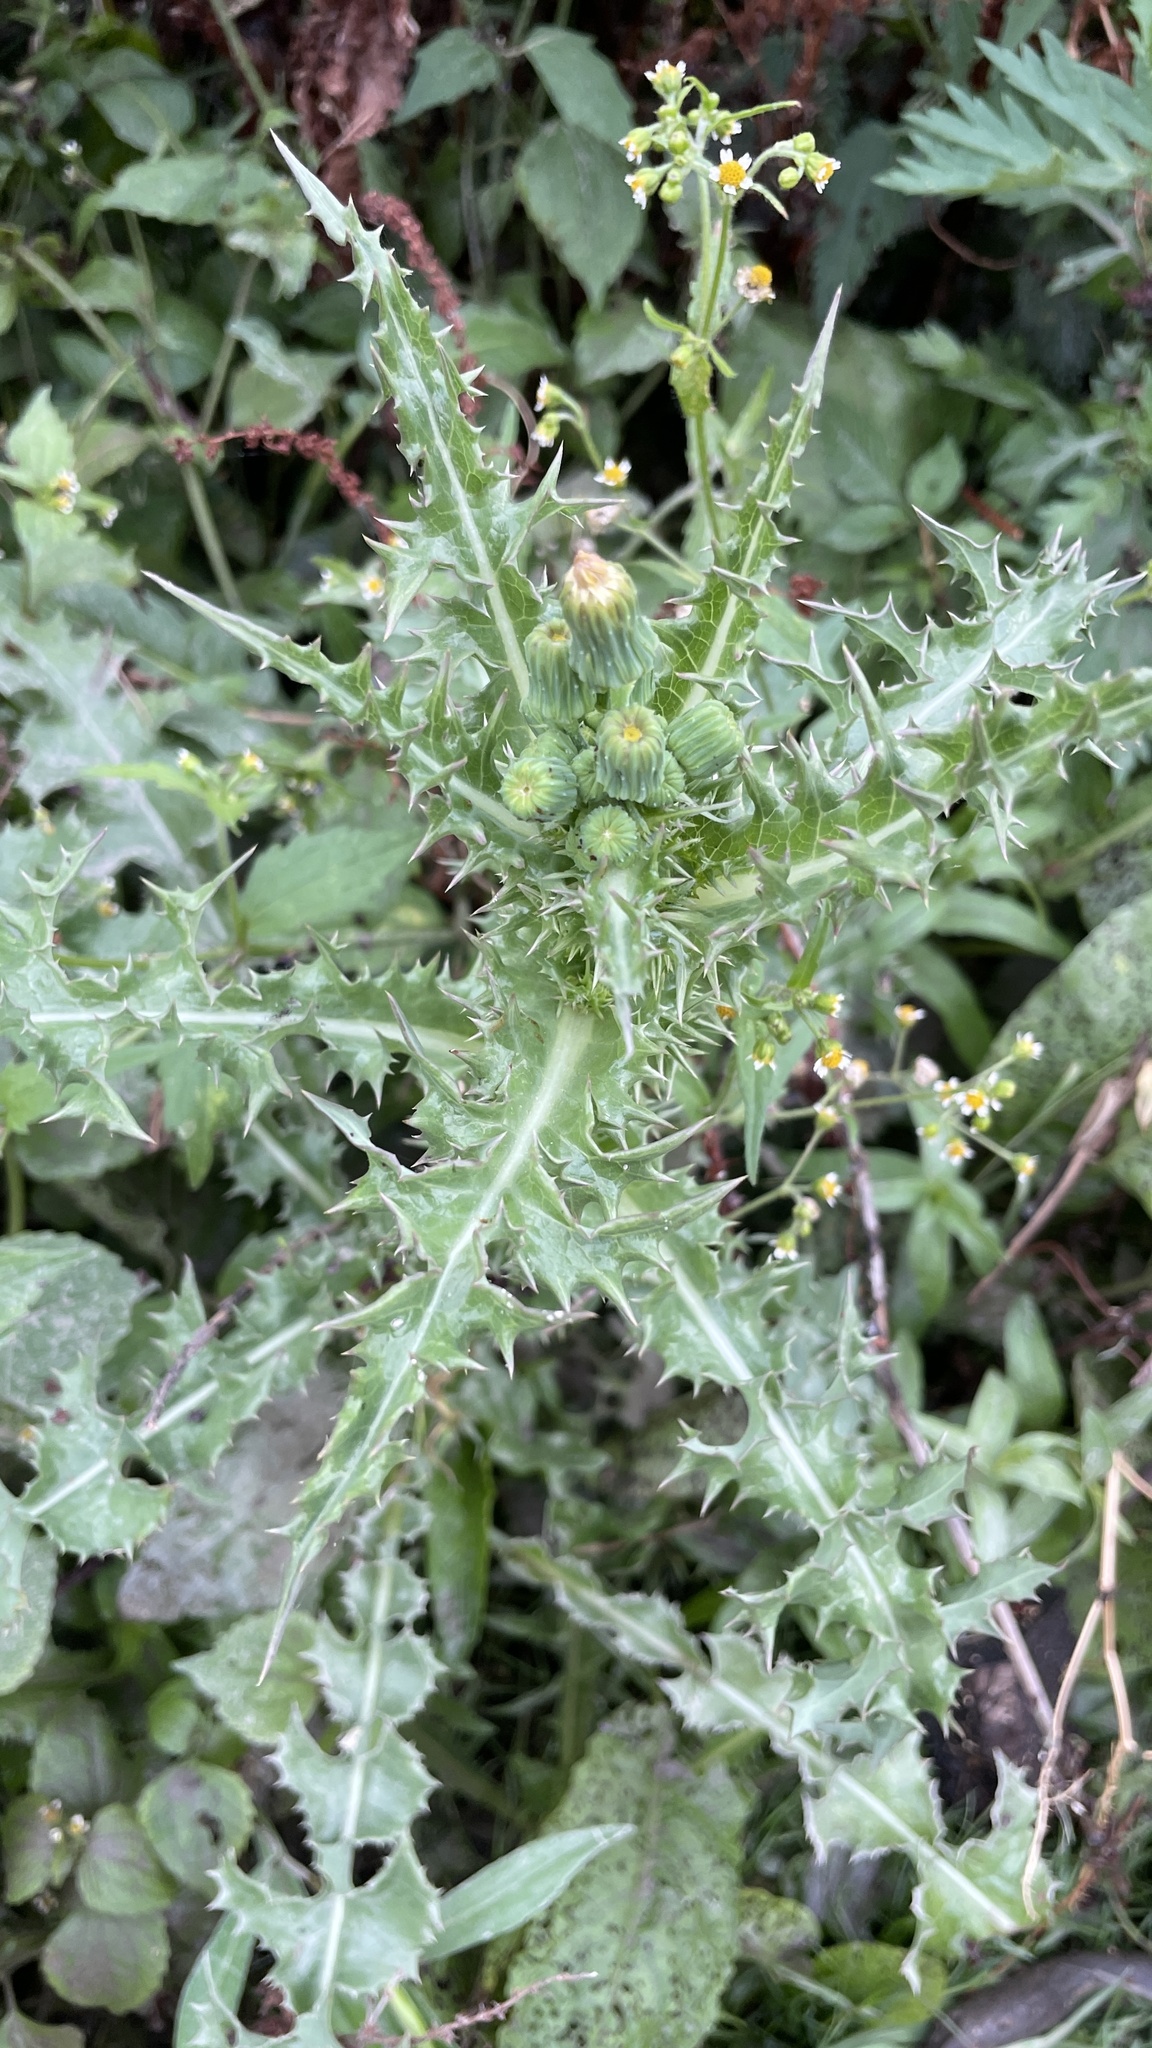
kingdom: Plantae
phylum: Tracheophyta
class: Magnoliopsida
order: Asterales
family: Asteraceae
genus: Sonchus
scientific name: Sonchus asper
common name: Prickly sow-thistle
